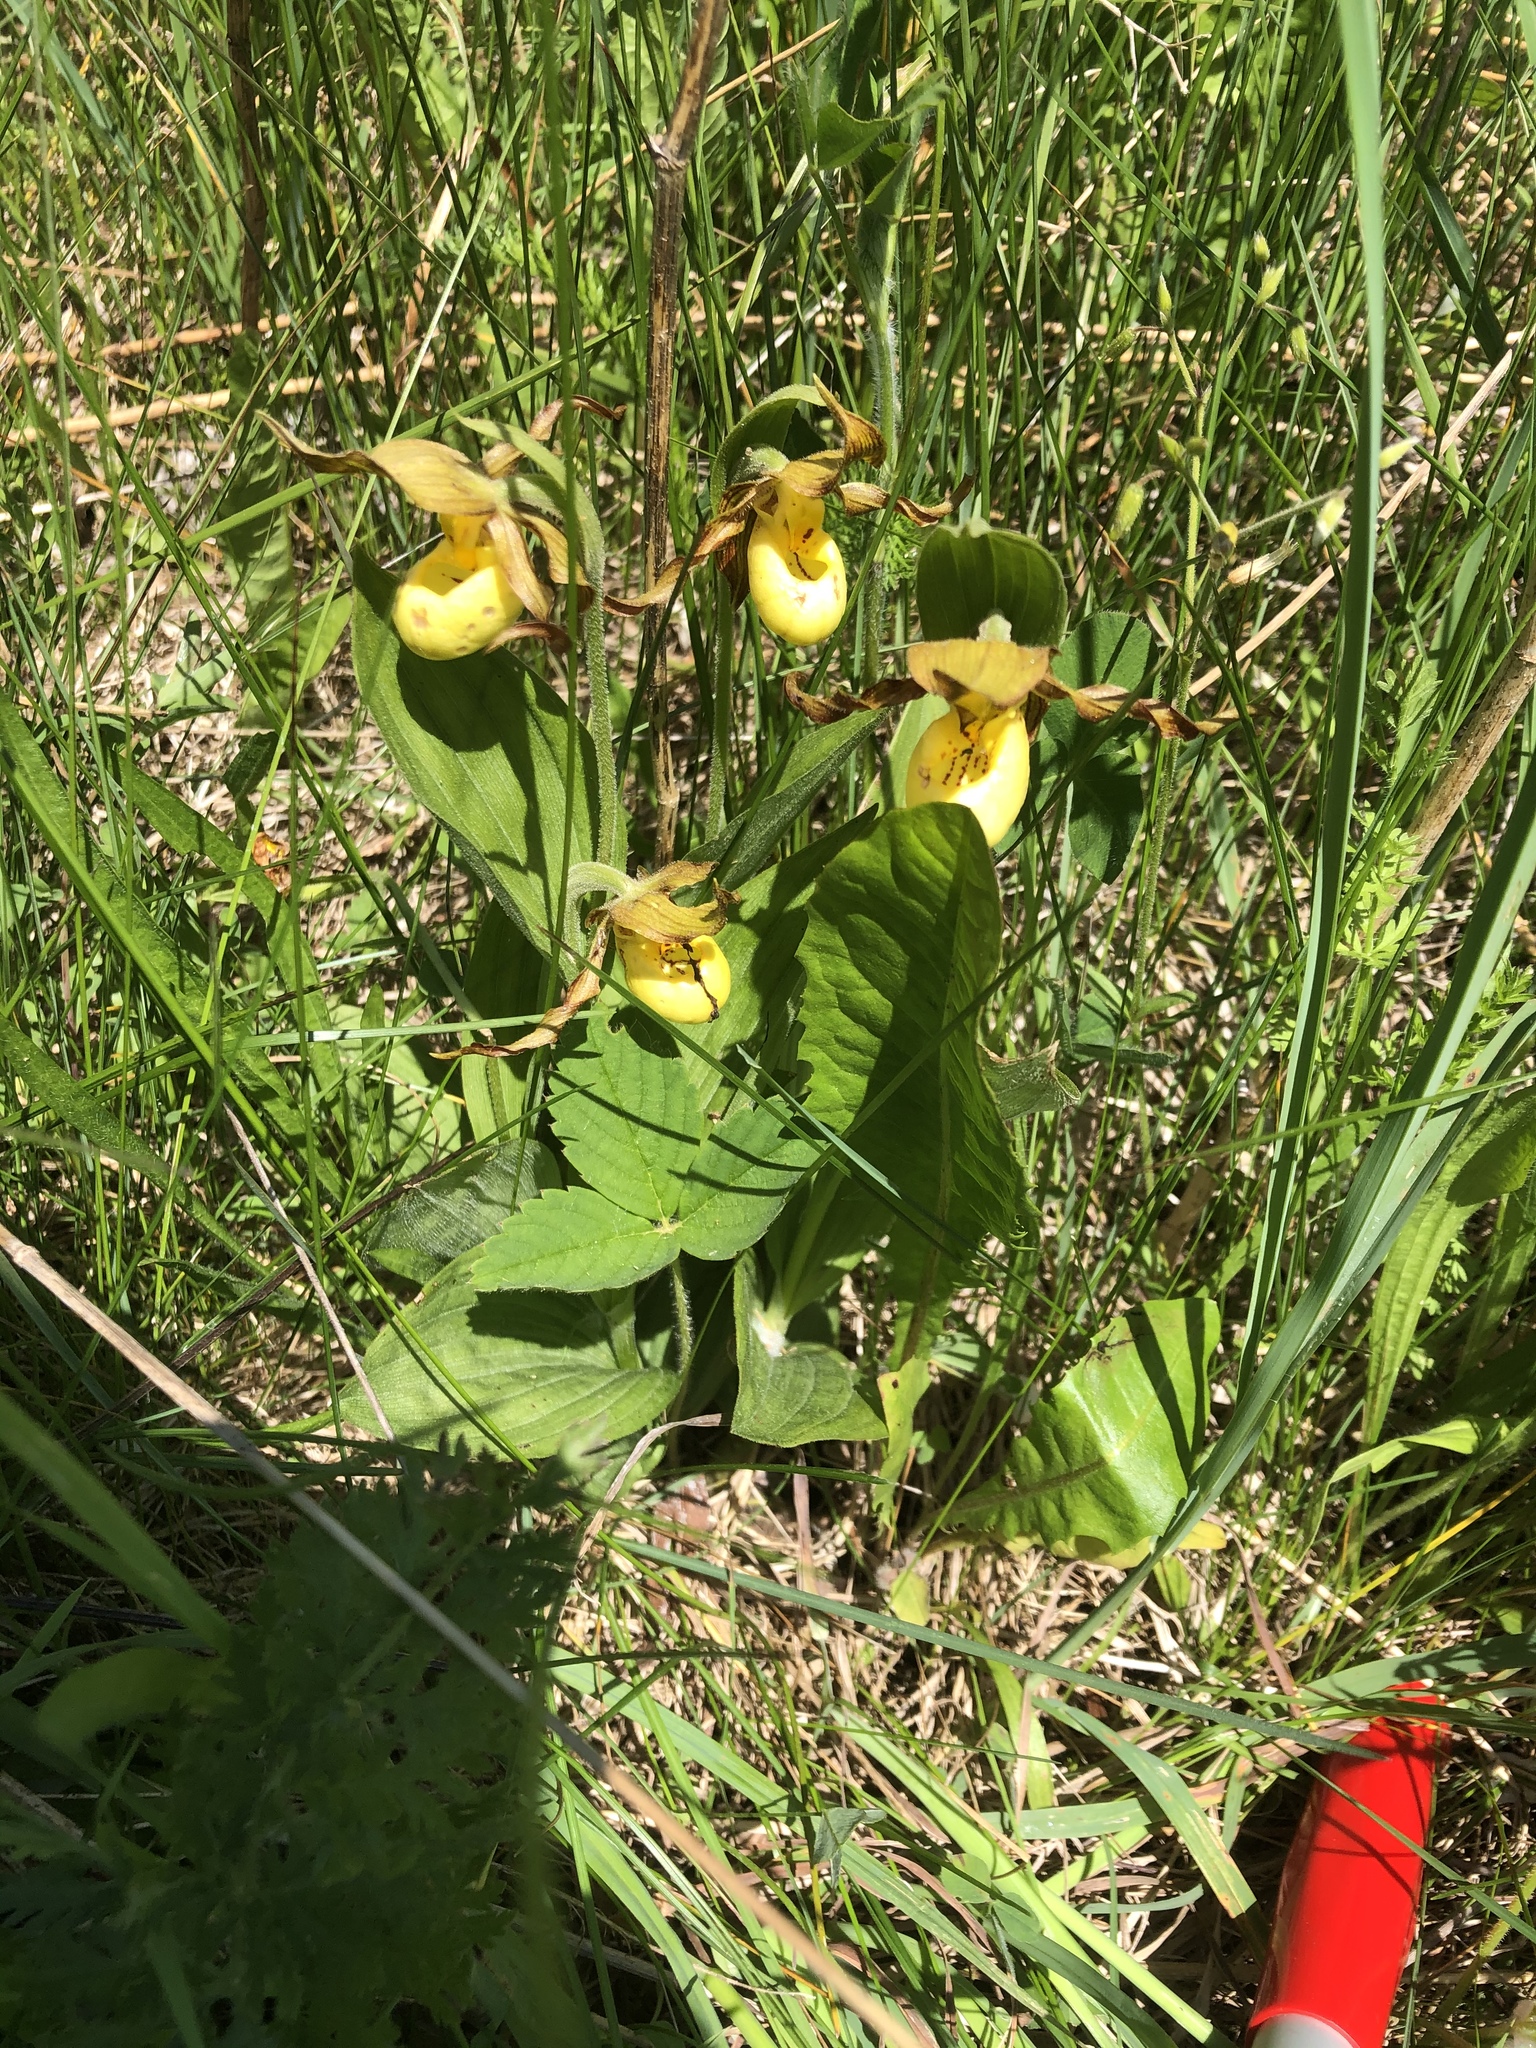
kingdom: Plantae
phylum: Tracheophyta
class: Liliopsida
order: Asparagales
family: Orchidaceae
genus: Cypripedium
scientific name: Cypripedium parviflorum
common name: American yellow lady's-slipper
